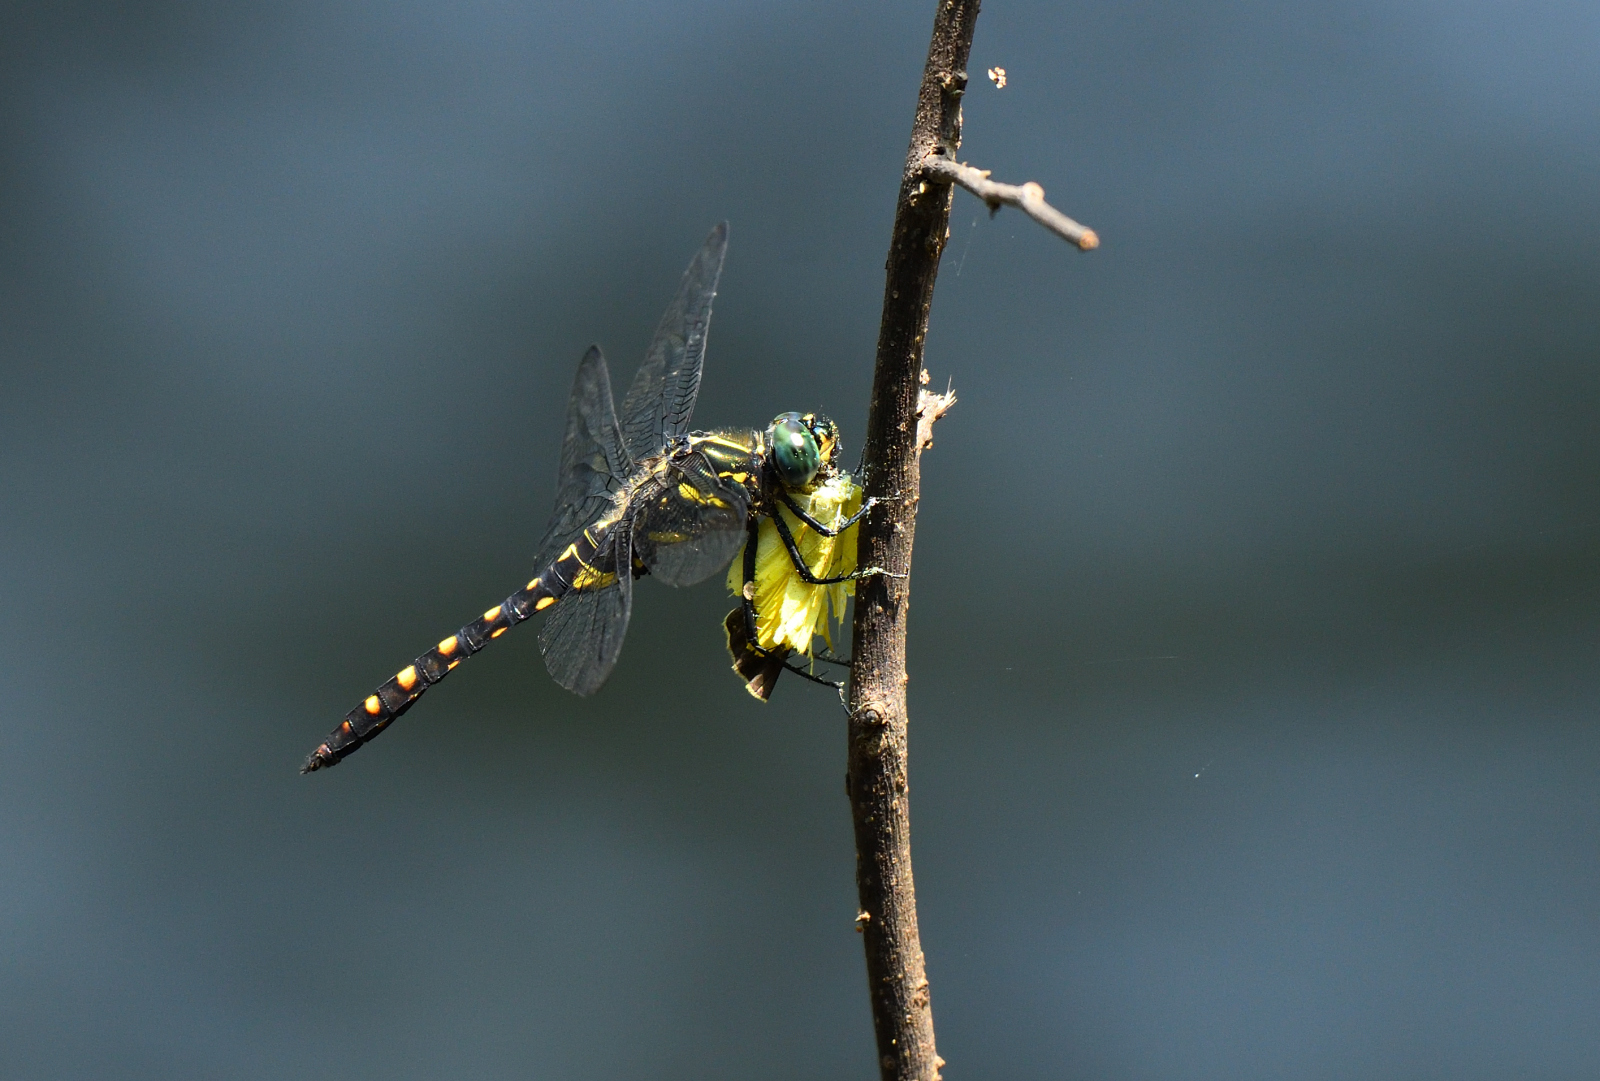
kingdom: Animalia
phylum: Arthropoda
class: Insecta
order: Odonata
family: Libellulidae
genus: Onychothemis
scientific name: Onychothemis testacea
